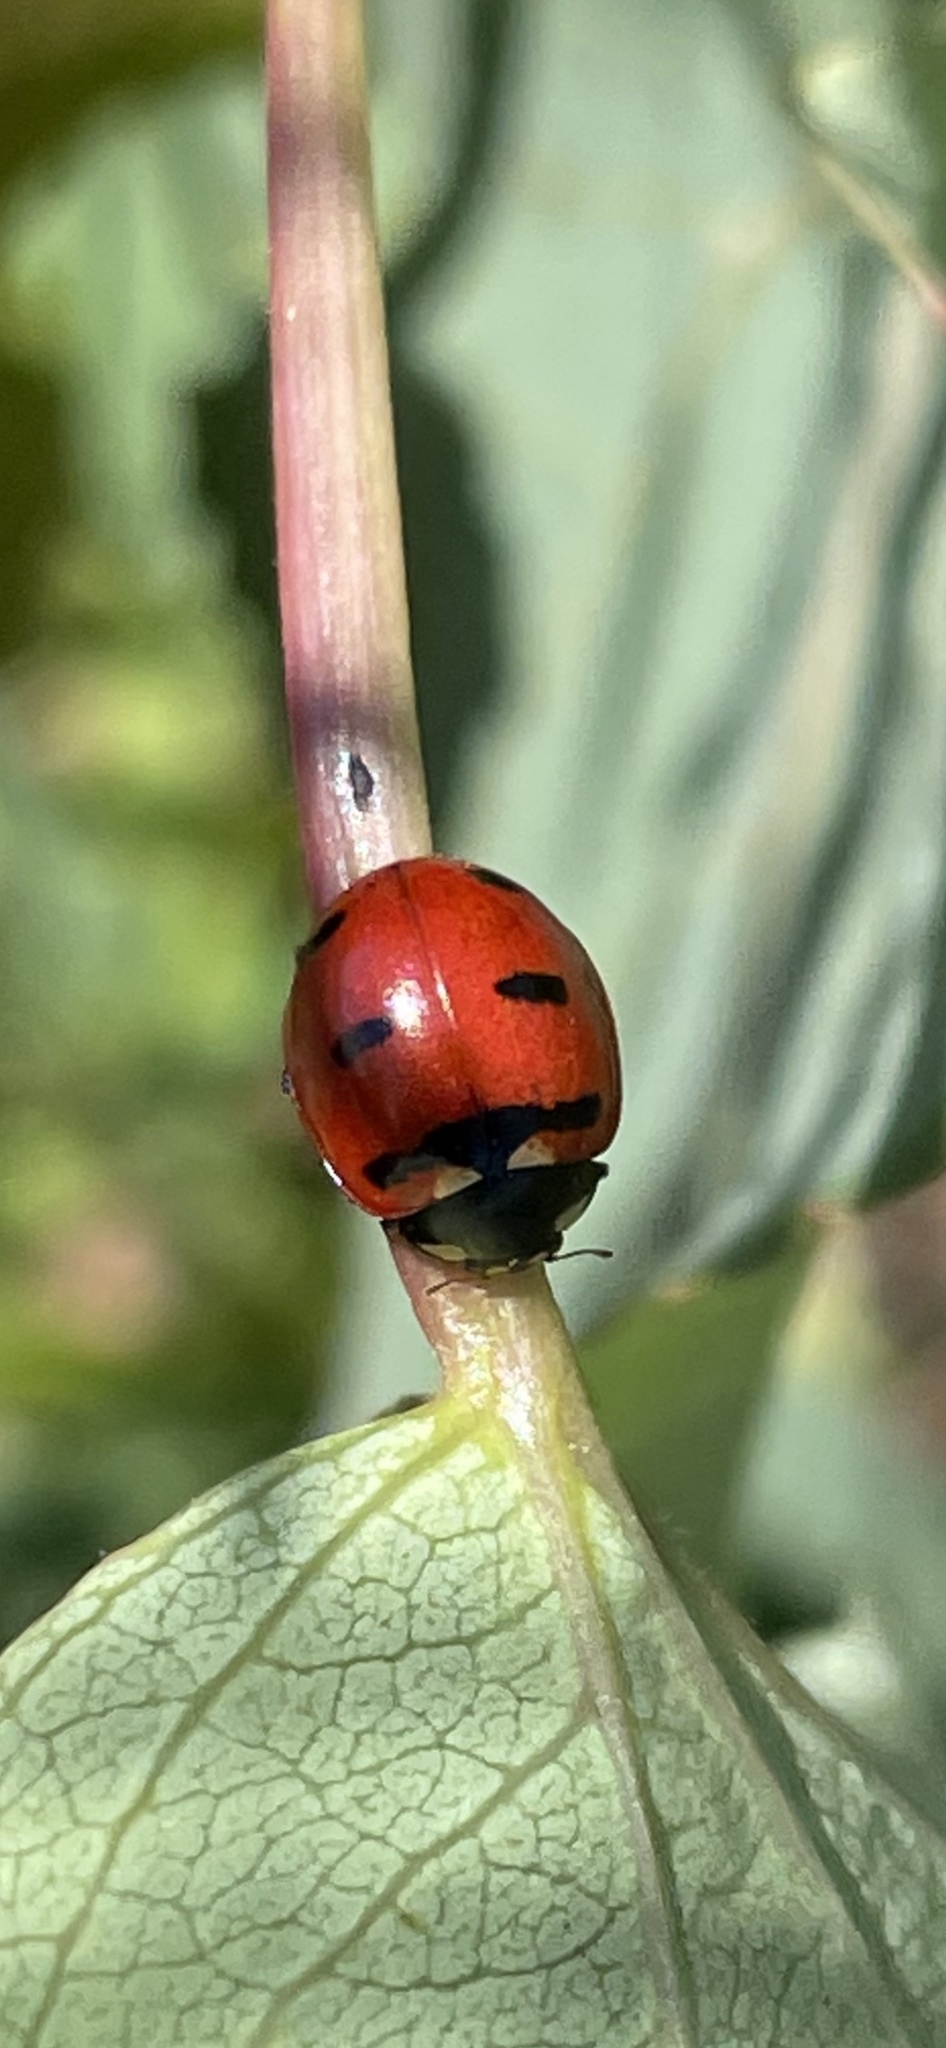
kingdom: Animalia
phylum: Arthropoda
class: Insecta
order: Coleoptera
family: Coccinellidae
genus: Coccinella
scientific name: Coccinella transversoguttata
